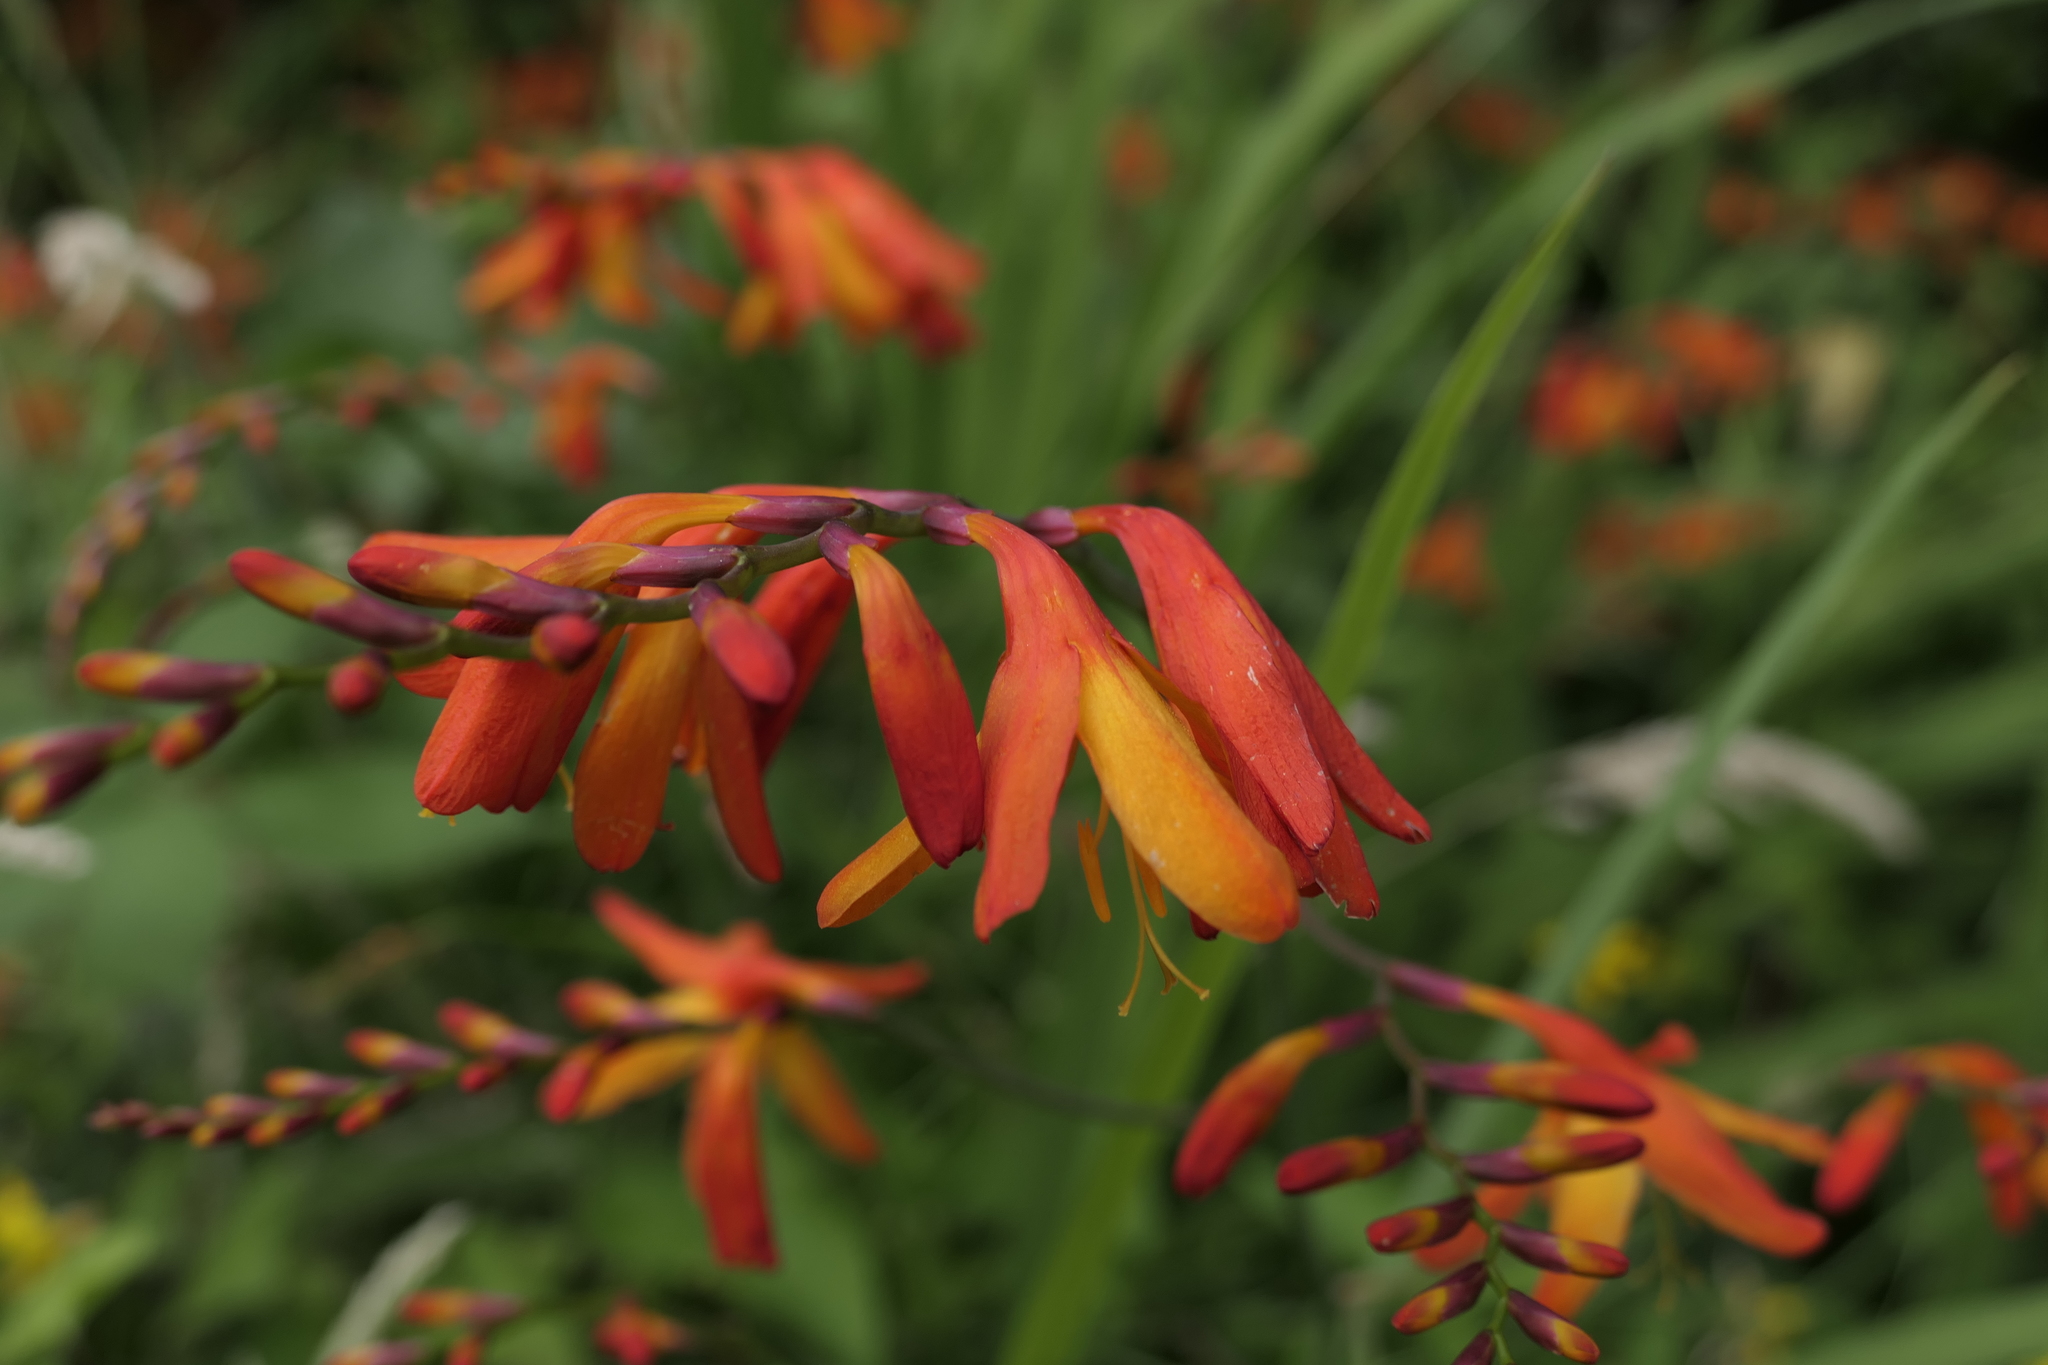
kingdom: Plantae
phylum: Tracheophyta
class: Liliopsida
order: Asparagales
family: Iridaceae
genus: Crocosmia
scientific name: Crocosmia crocosmiiflora
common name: Montbretia
